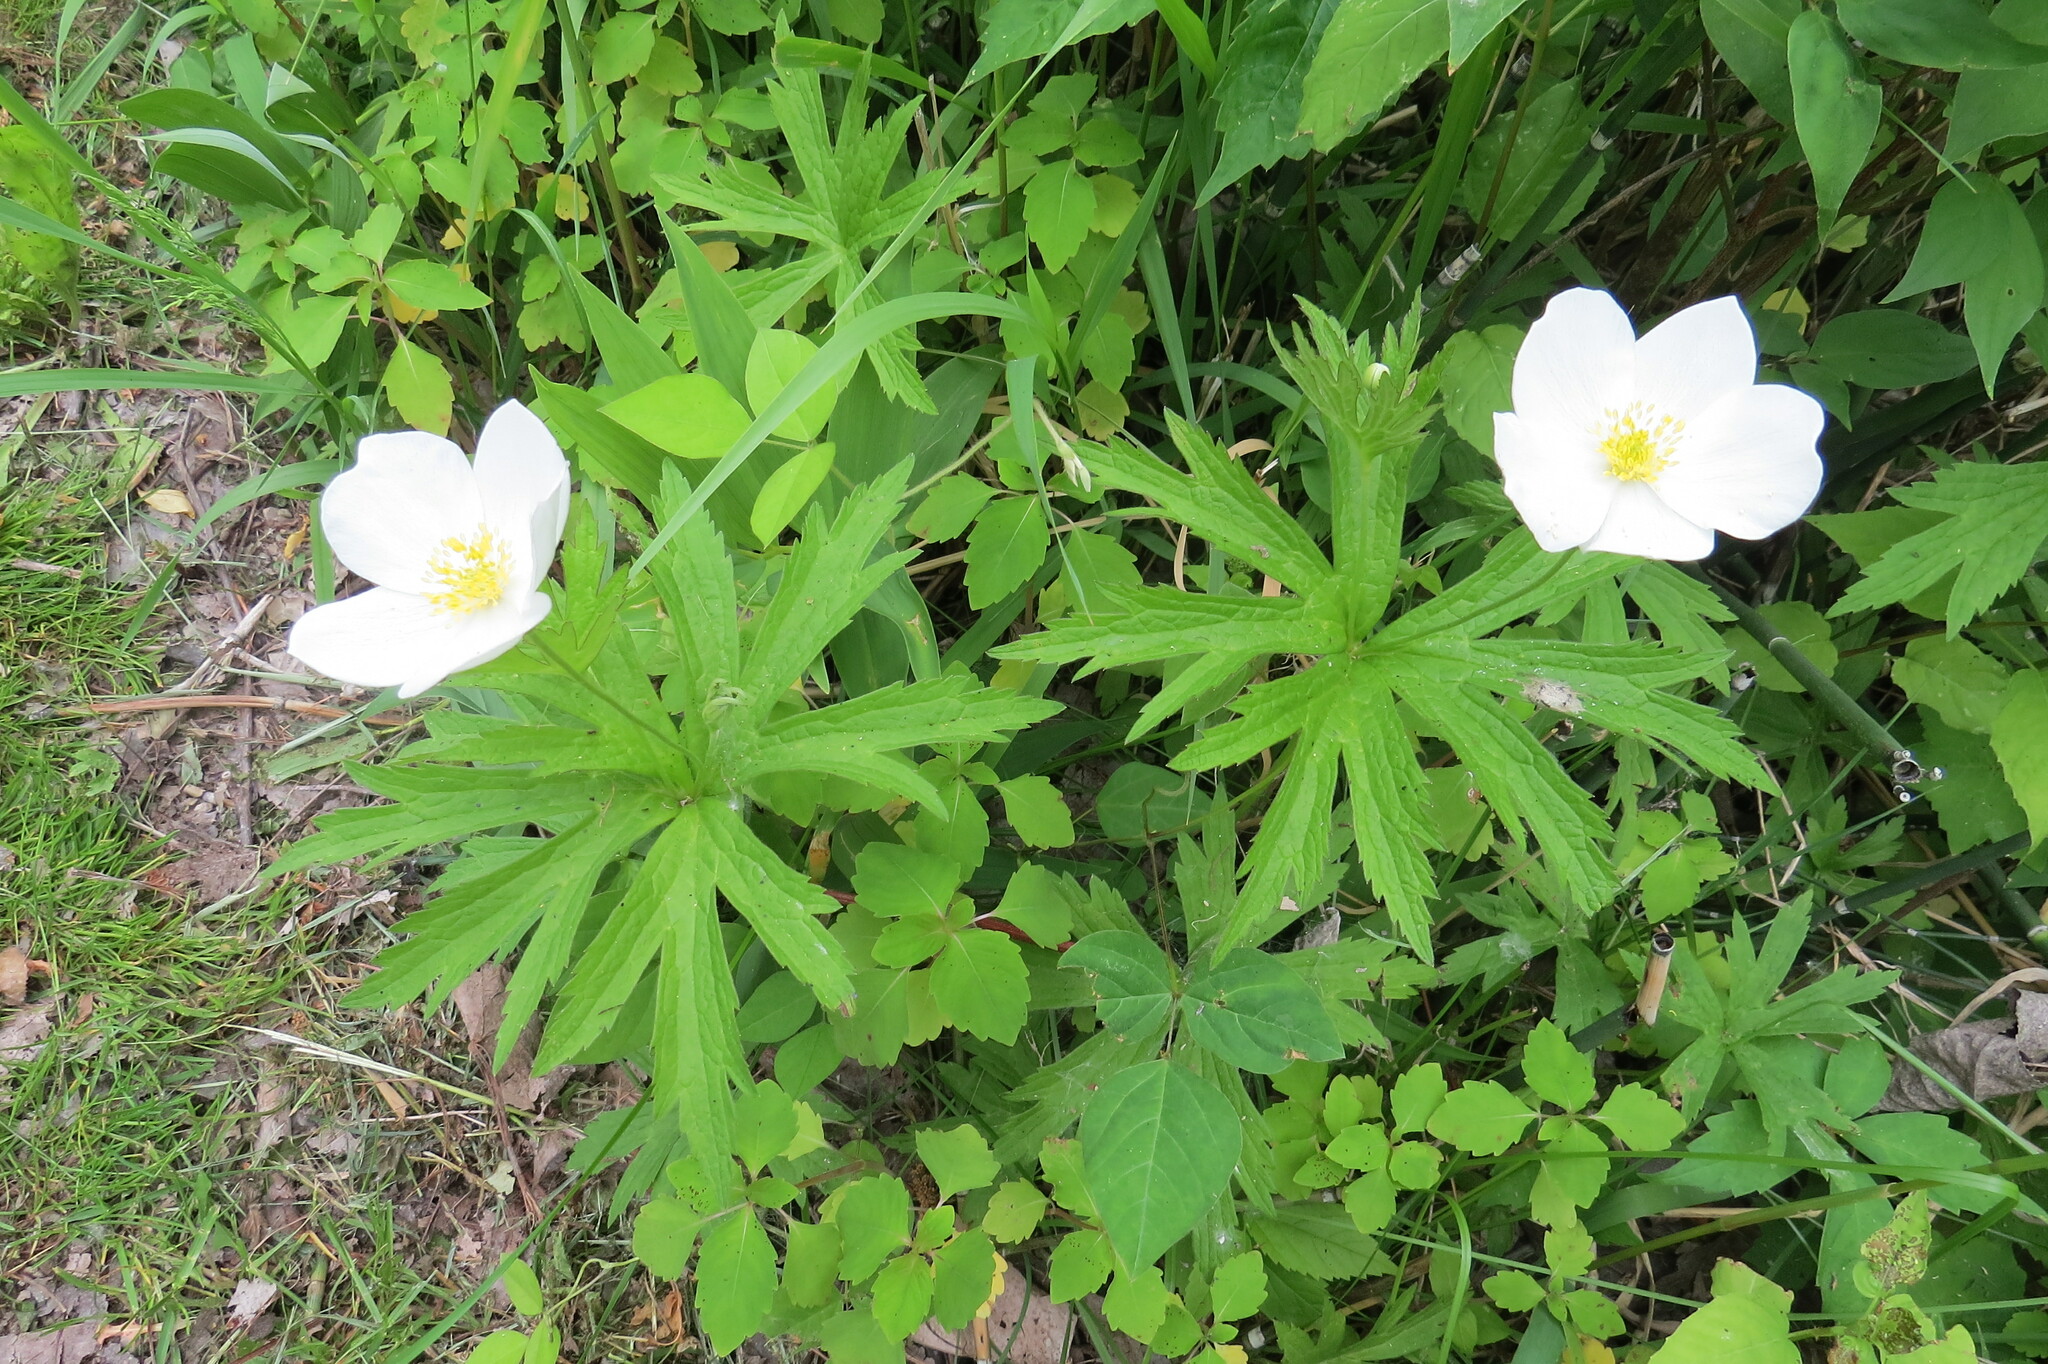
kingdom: Plantae
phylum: Tracheophyta
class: Magnoliopsida
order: Ranunculales
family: Ranunculaceae
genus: Anemonastrum
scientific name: Anemonastrum canadense
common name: Canada anemone
